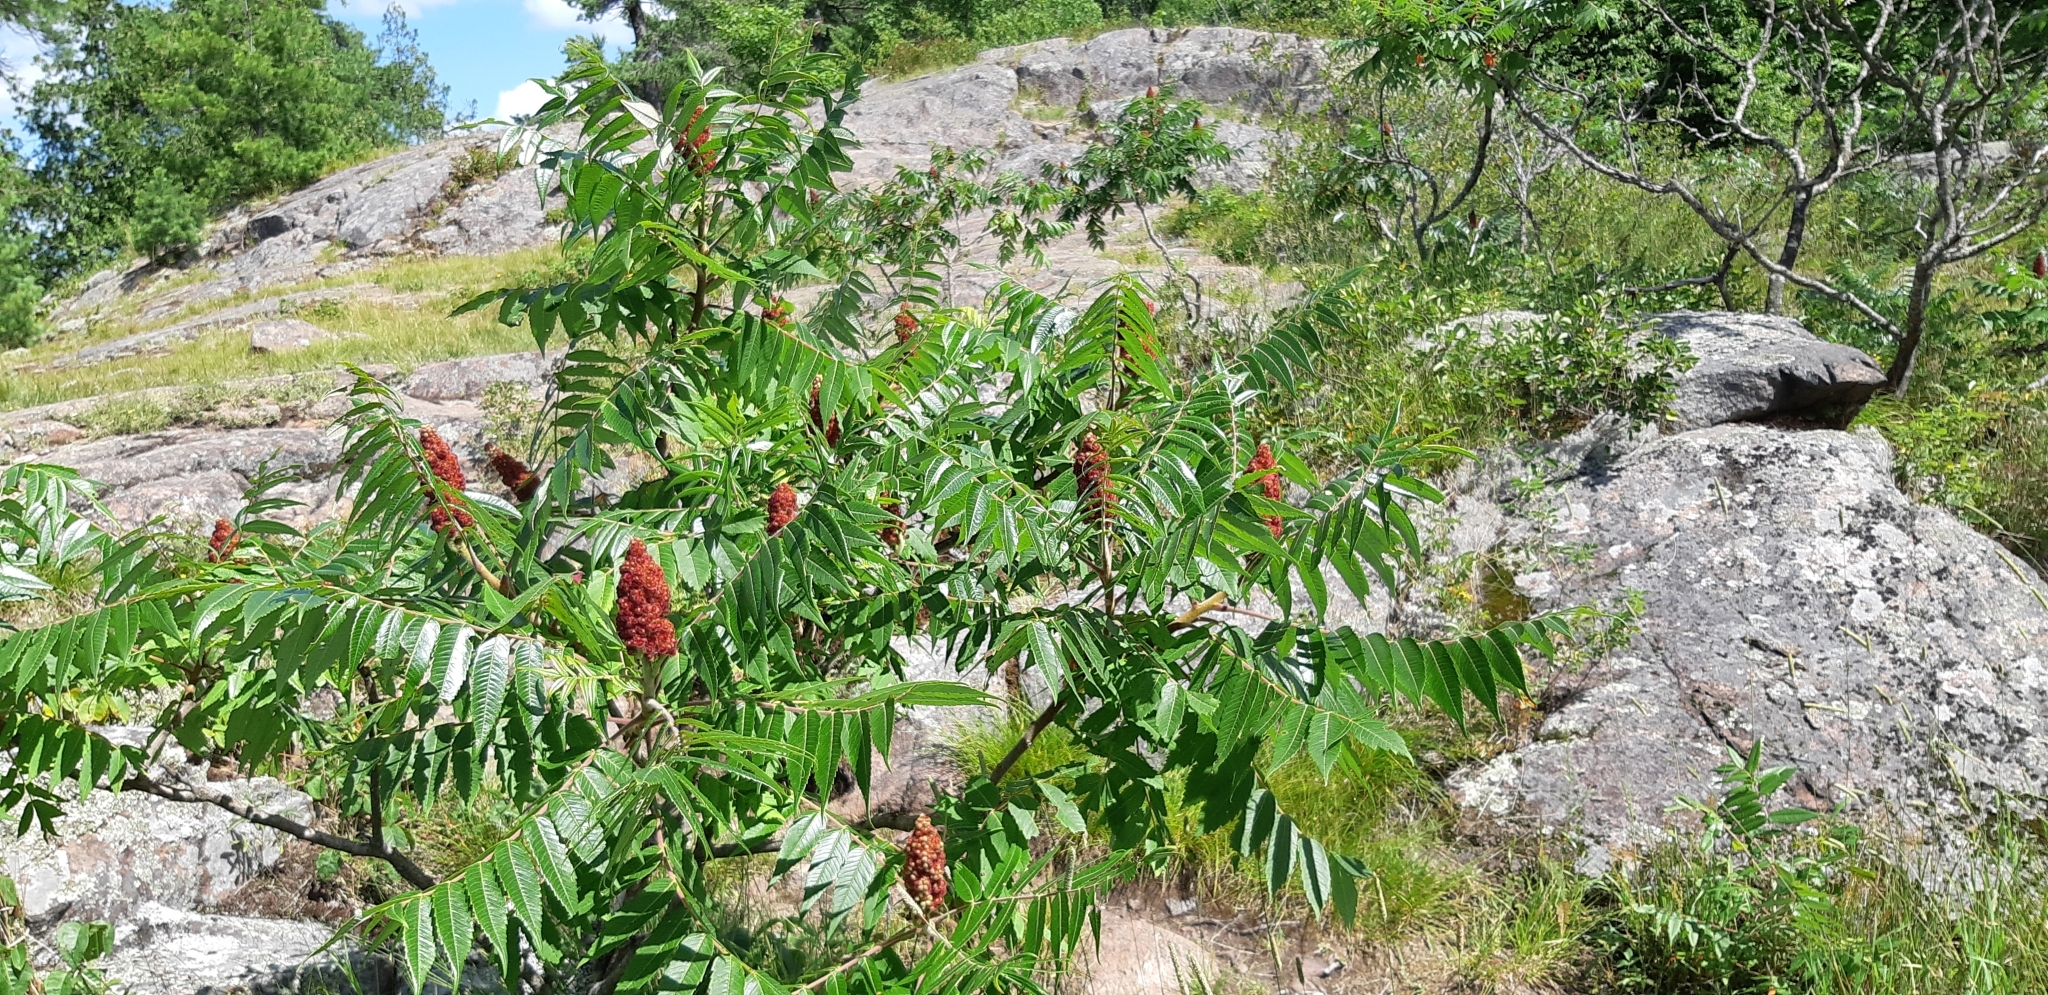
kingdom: Plantae
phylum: Tracheophyta
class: Magnoliopsida
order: Sapindales
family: Anacardiaceae
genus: Rhus
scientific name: Rhus typhina
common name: Staghorn sumac
